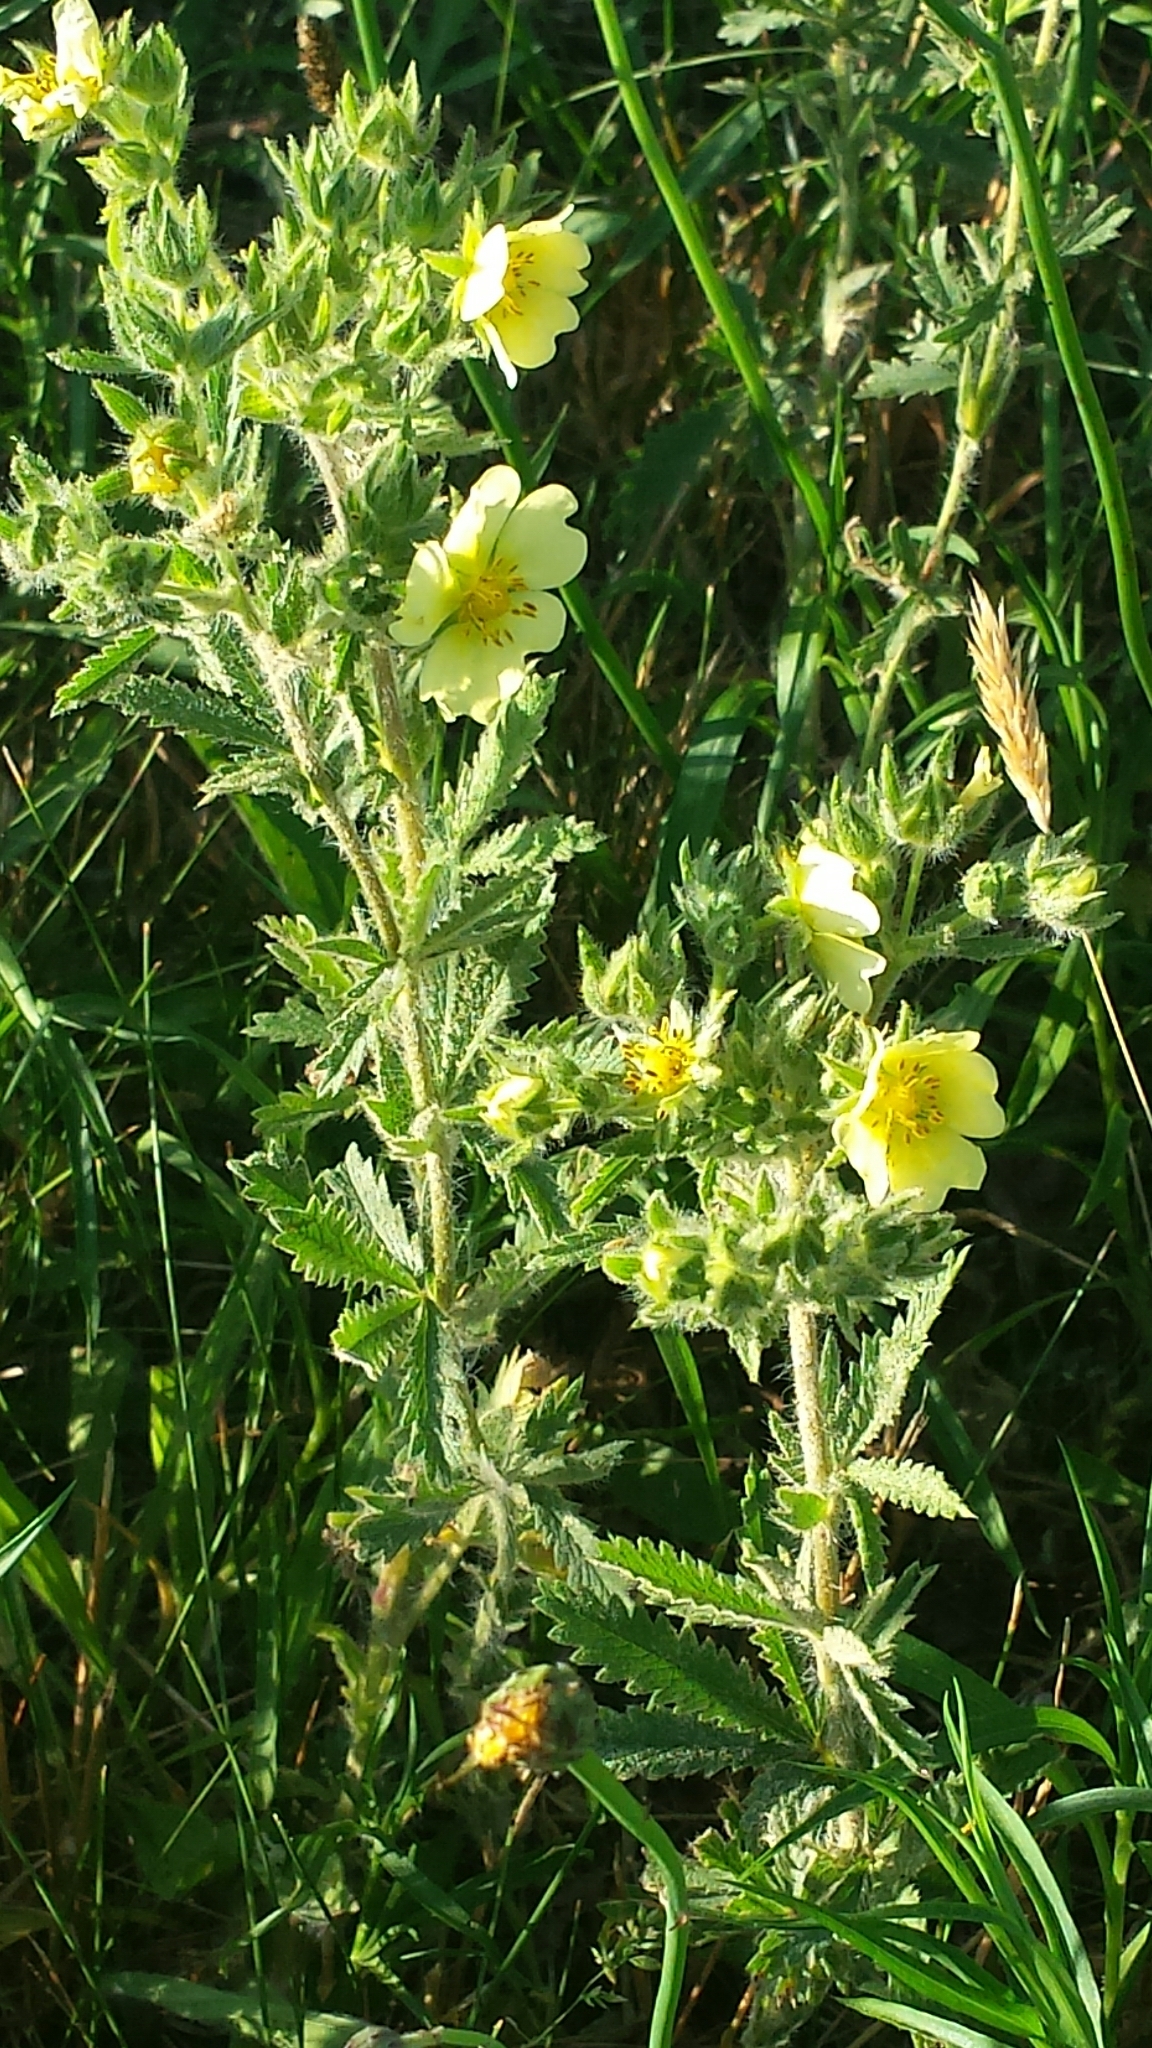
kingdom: Plantae
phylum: Tracheophyta
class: Magnoliopsida
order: Rosales
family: Rosaceae
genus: Potentilla
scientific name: Potentilla recta
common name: Sulphur cinquefoil
